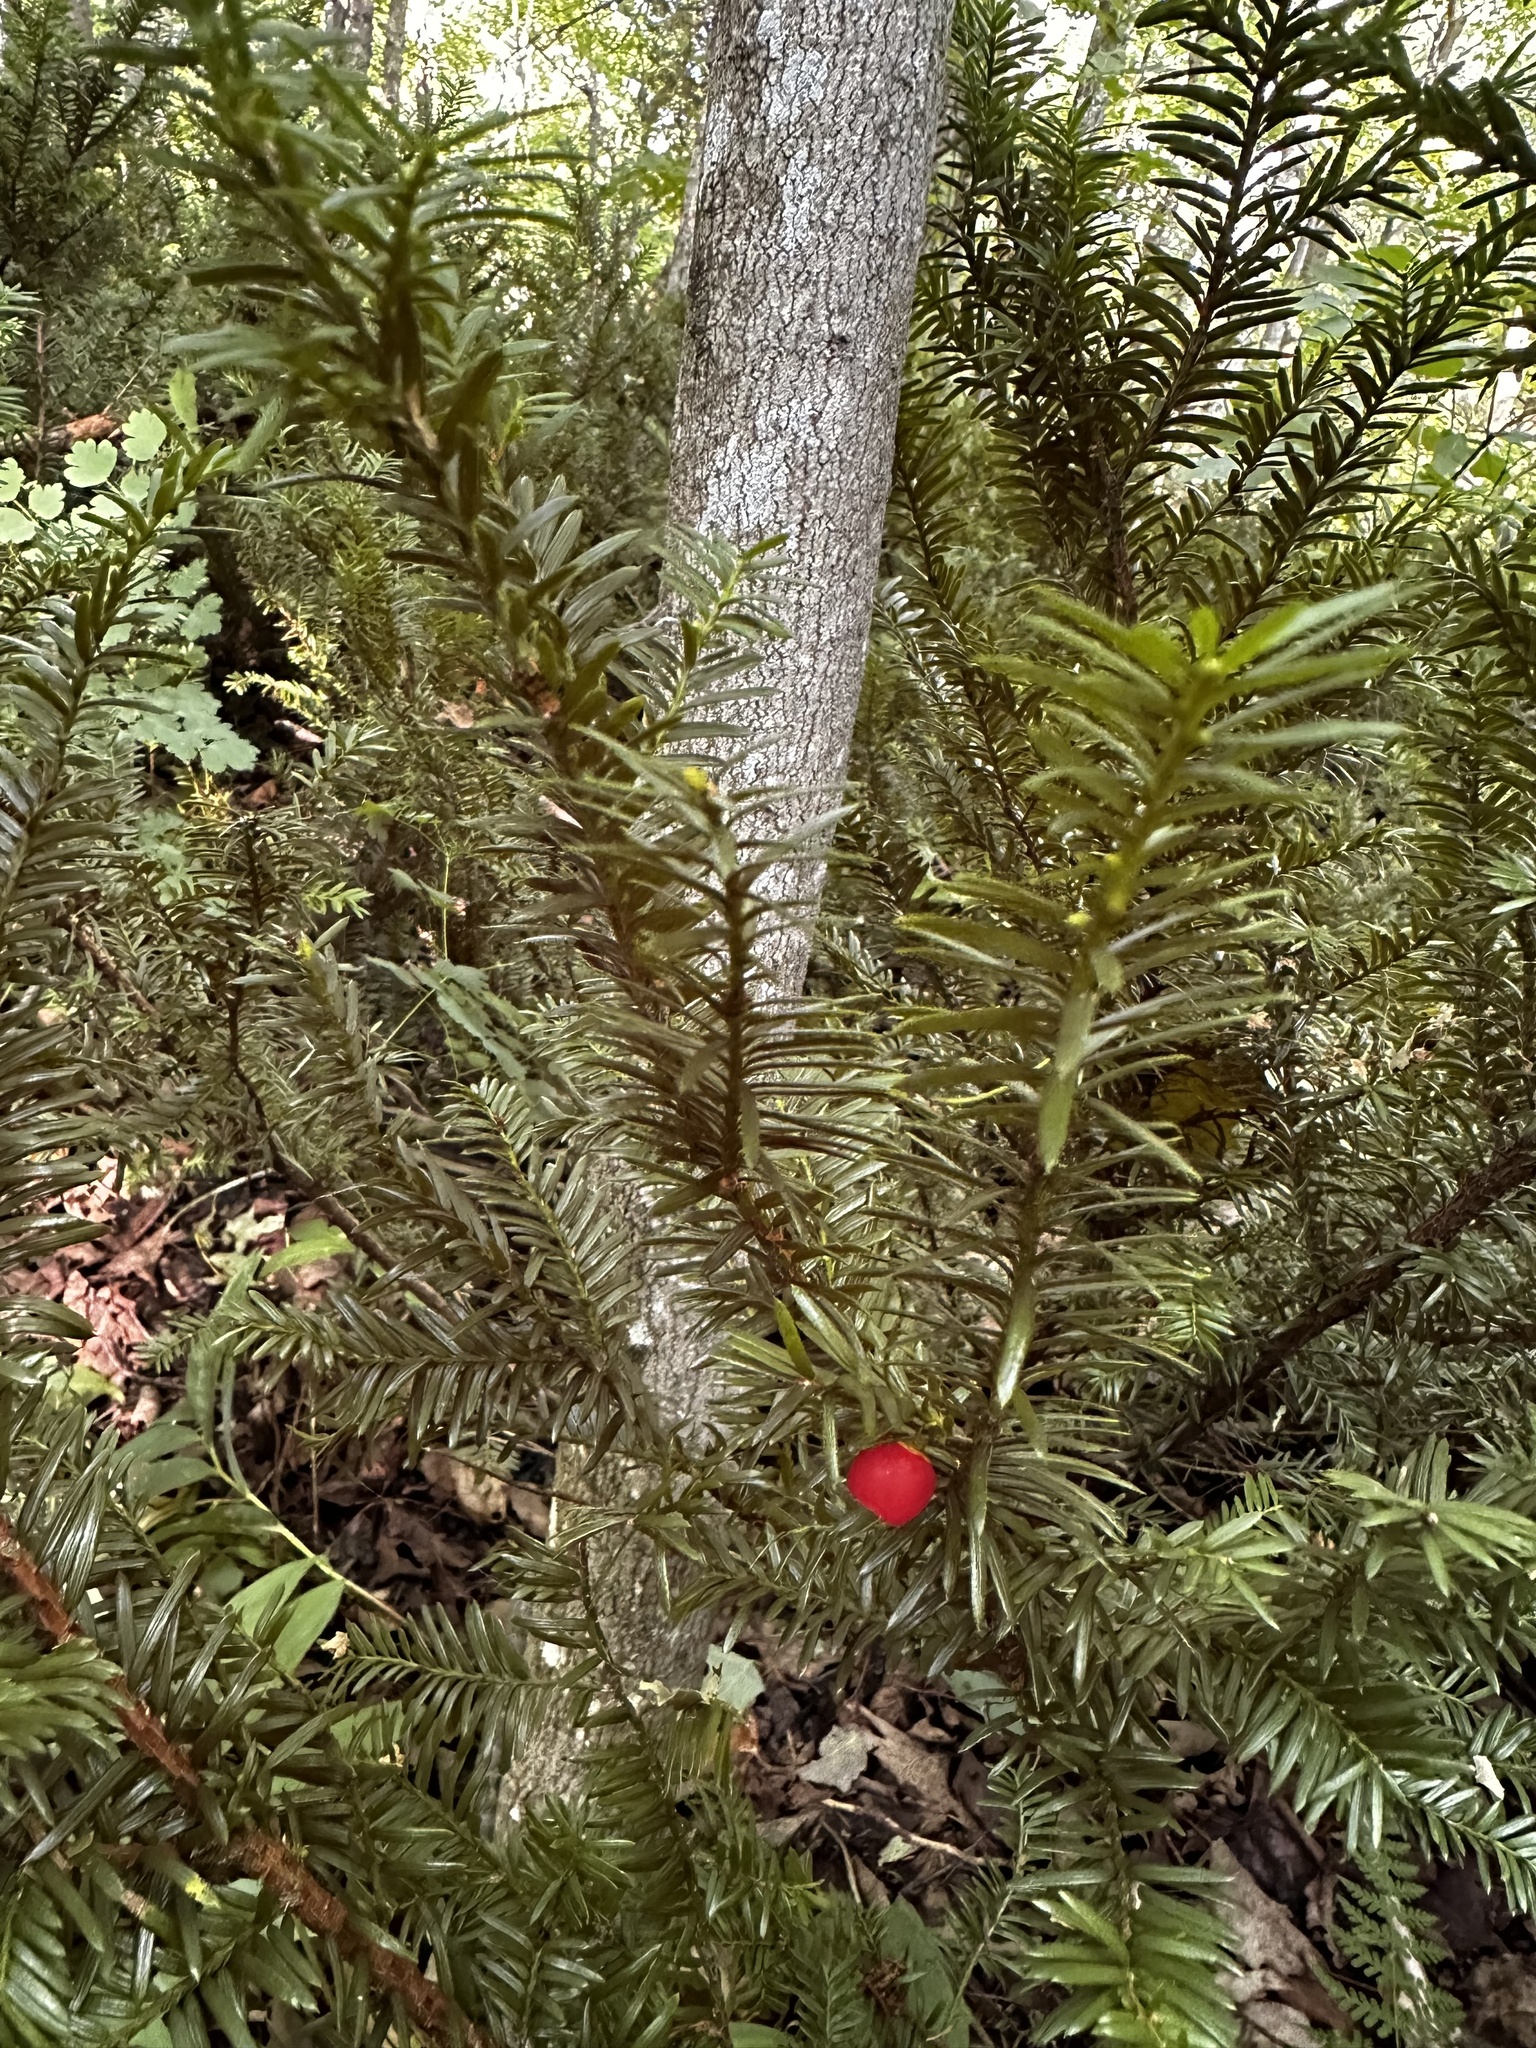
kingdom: Plantae
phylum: Tracheophyta
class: Pinopsida
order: Pinales
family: Taxaceae
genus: Taxus
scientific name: Taxus canadensis
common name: American yew
